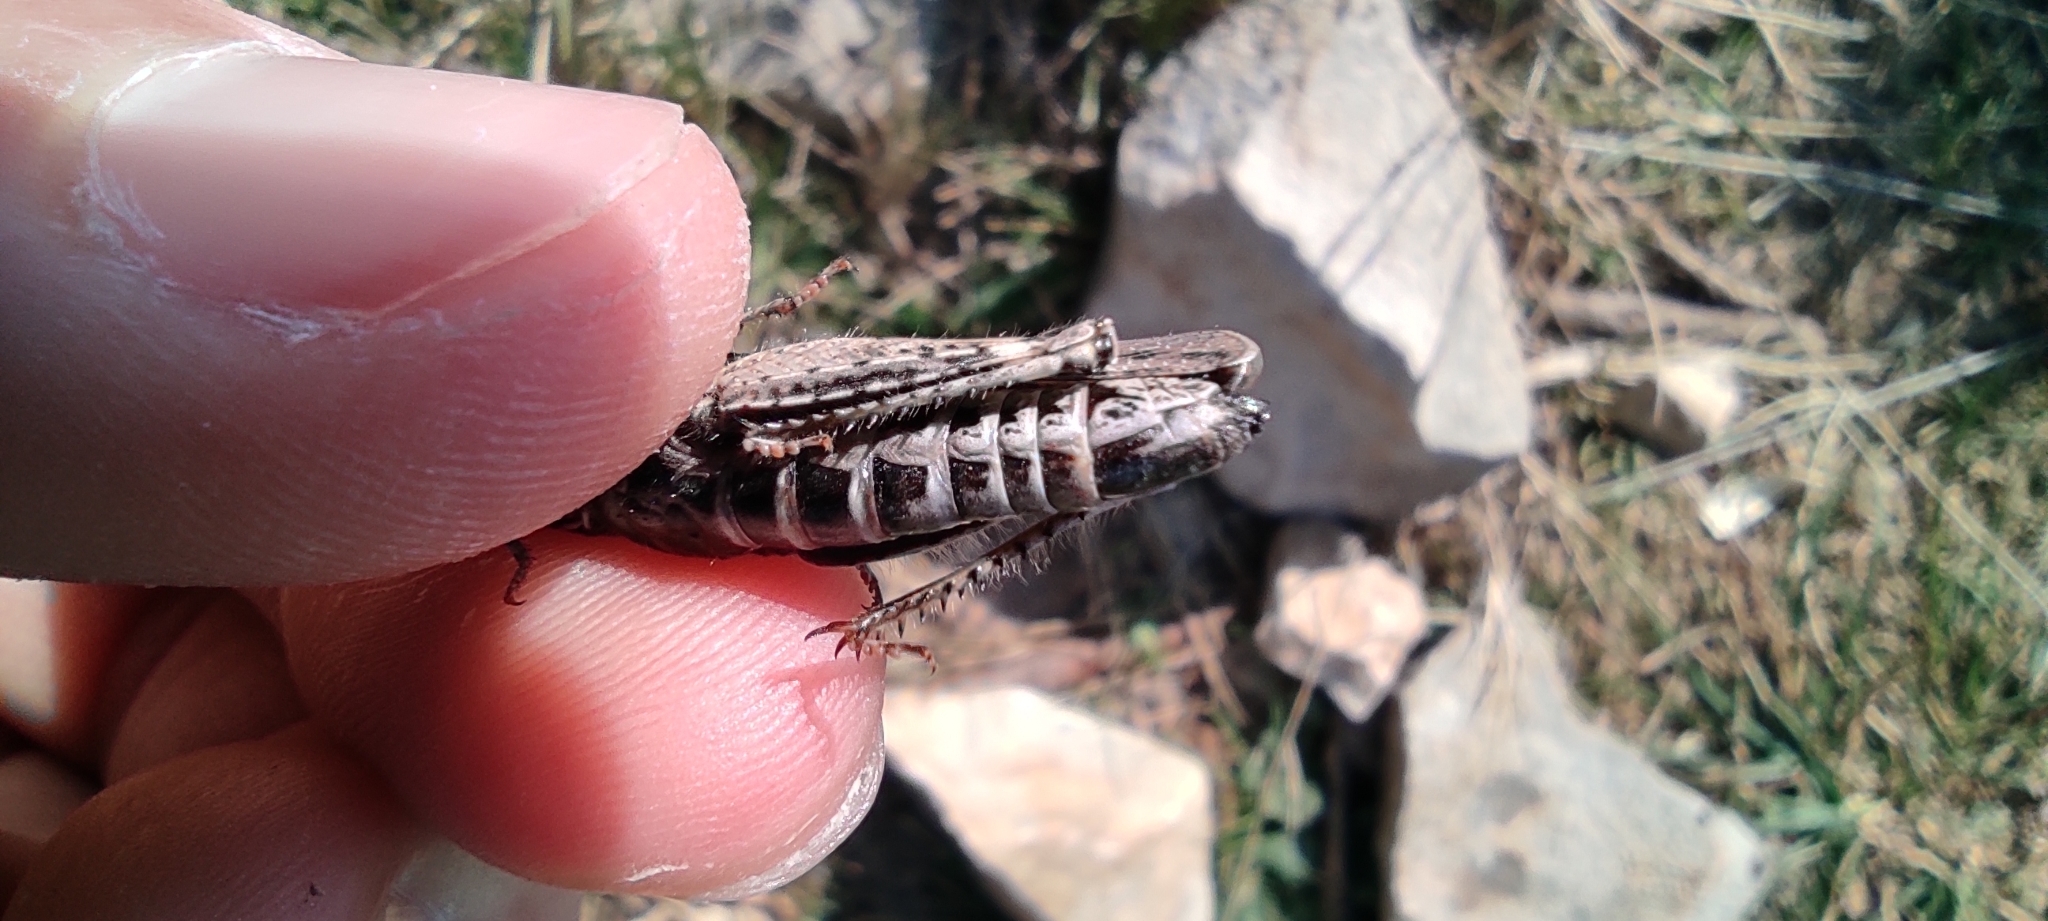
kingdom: Animalia
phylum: Arthropoda
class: Insecta
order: Orthoptera
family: Acrididae
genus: Acrotylus
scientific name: Acrotylus
